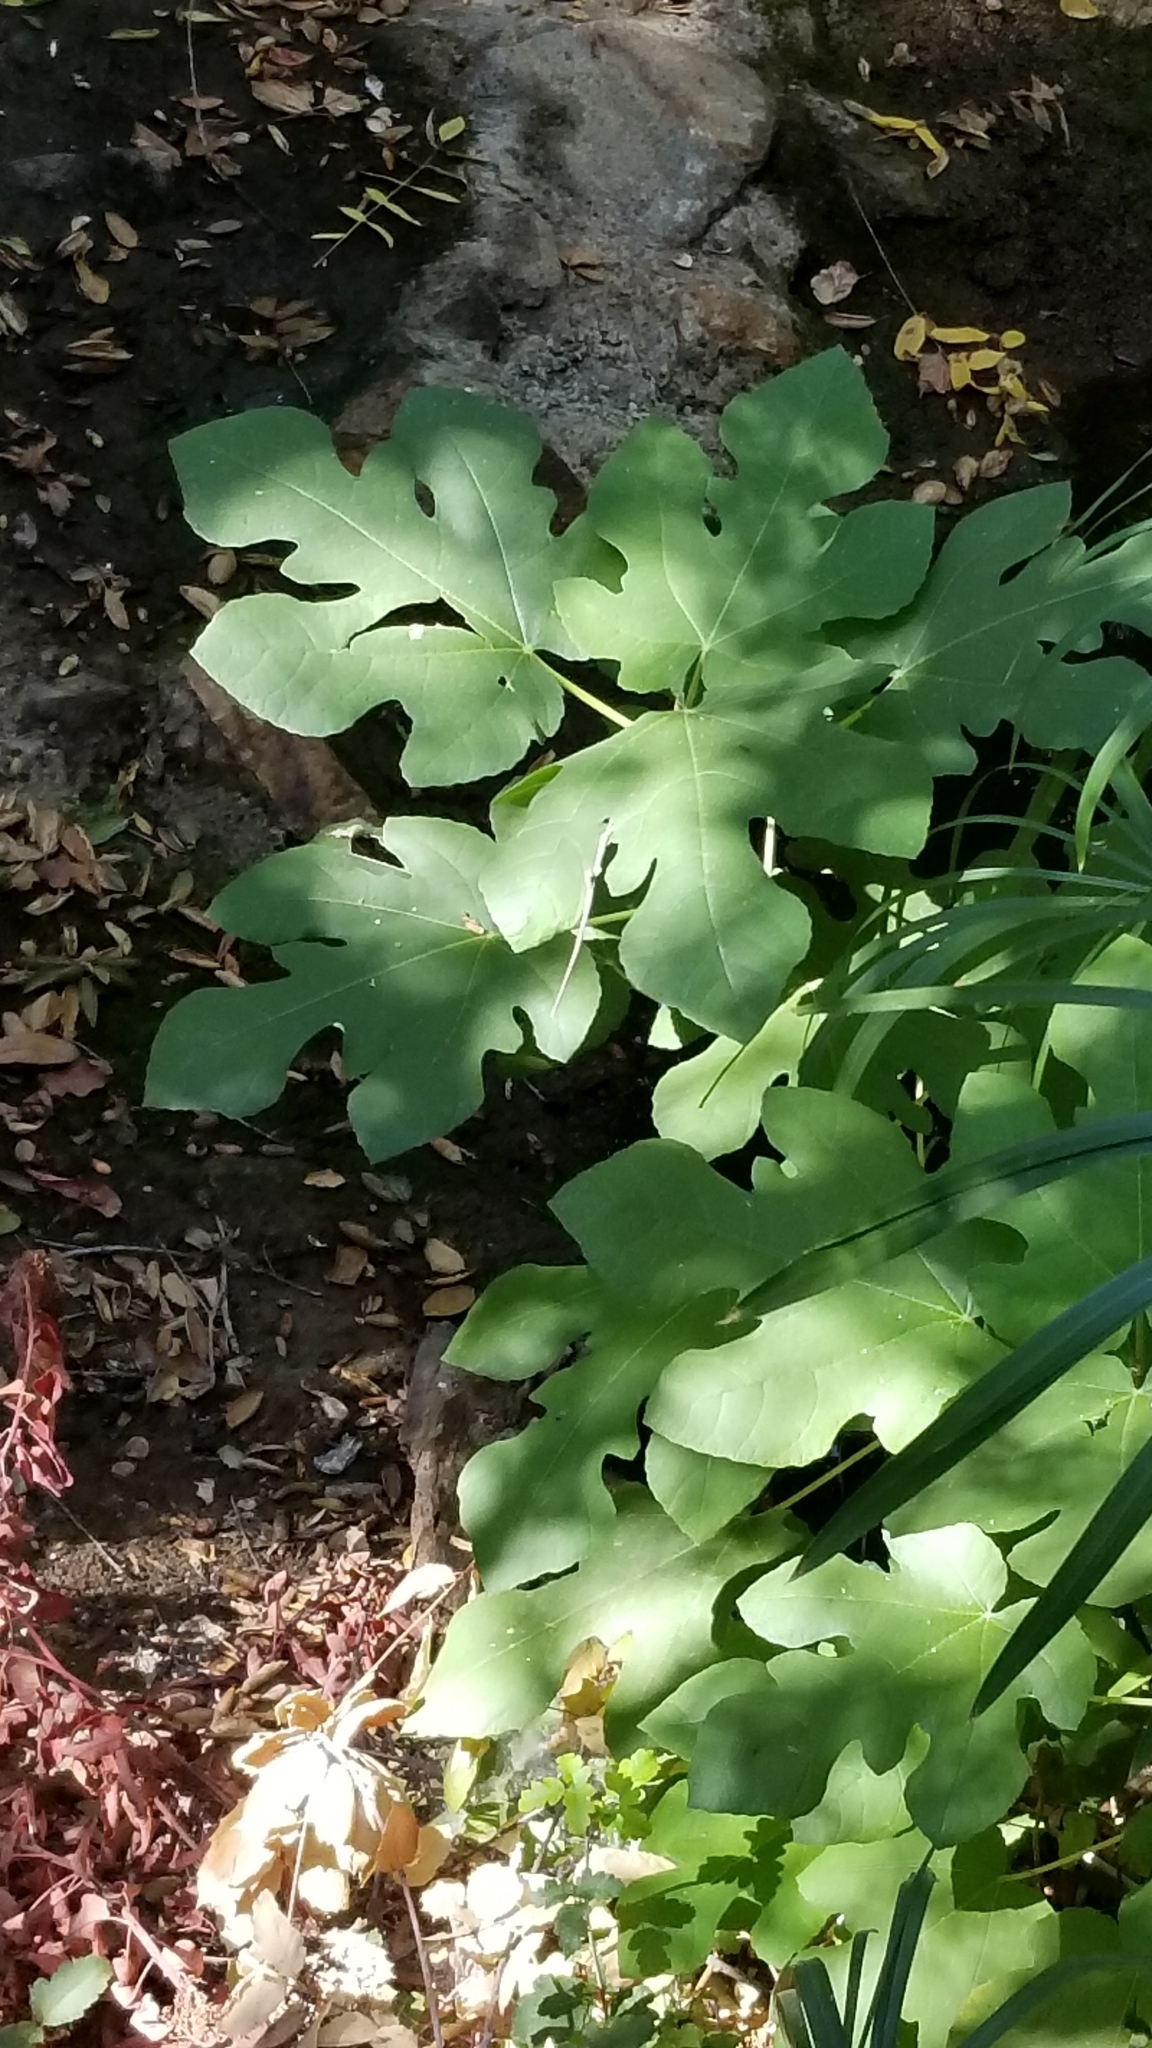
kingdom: Plantae
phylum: Tracheophyta
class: Magnoliopsida
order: Rosales
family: Moraceae
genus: Ficus
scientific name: Ficus carica
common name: Fig
